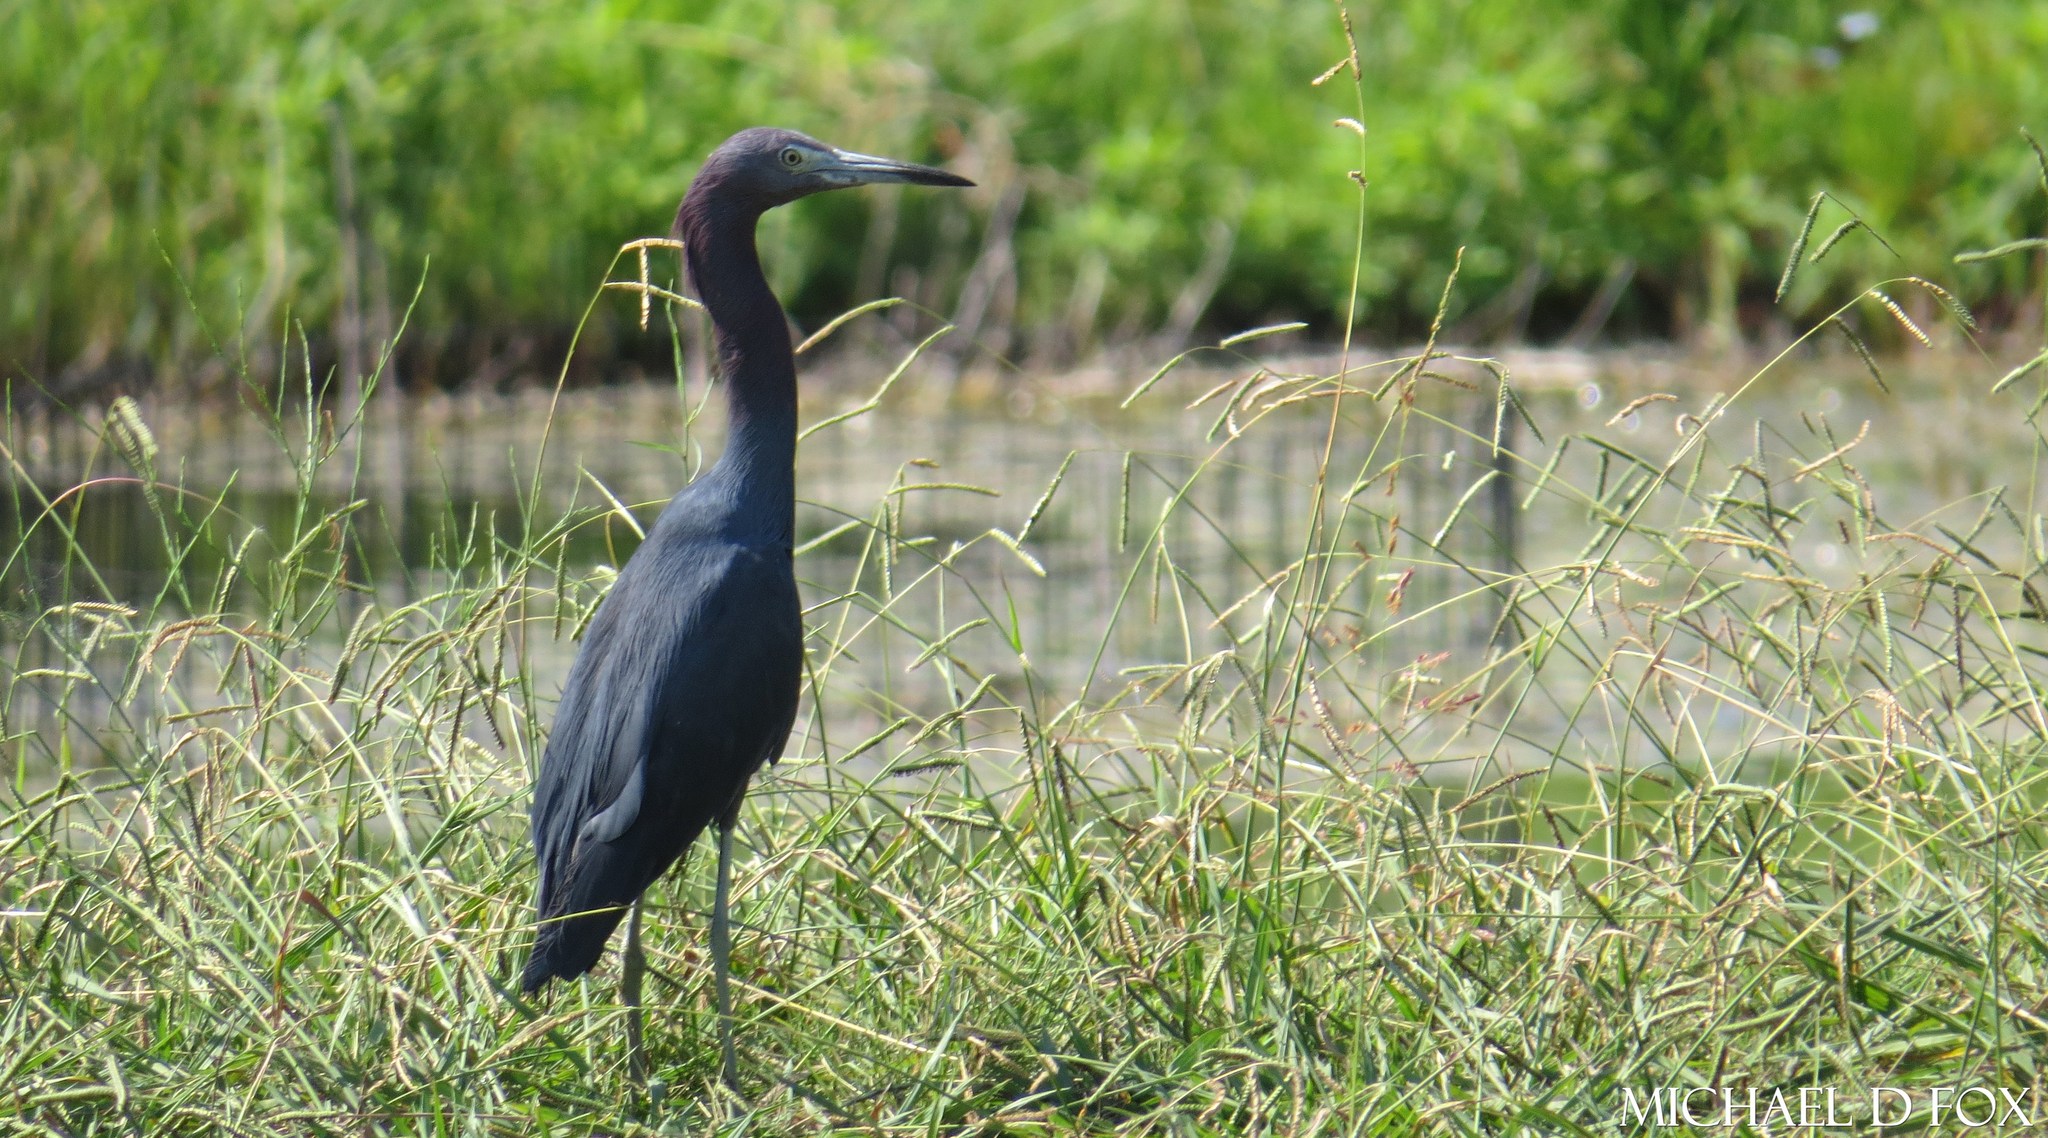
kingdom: Animalia
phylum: Chordata
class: Aves
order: Pelecaniformes
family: Ardeidae
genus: Egretta
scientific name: Egretta caerulea
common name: Little blue heron
